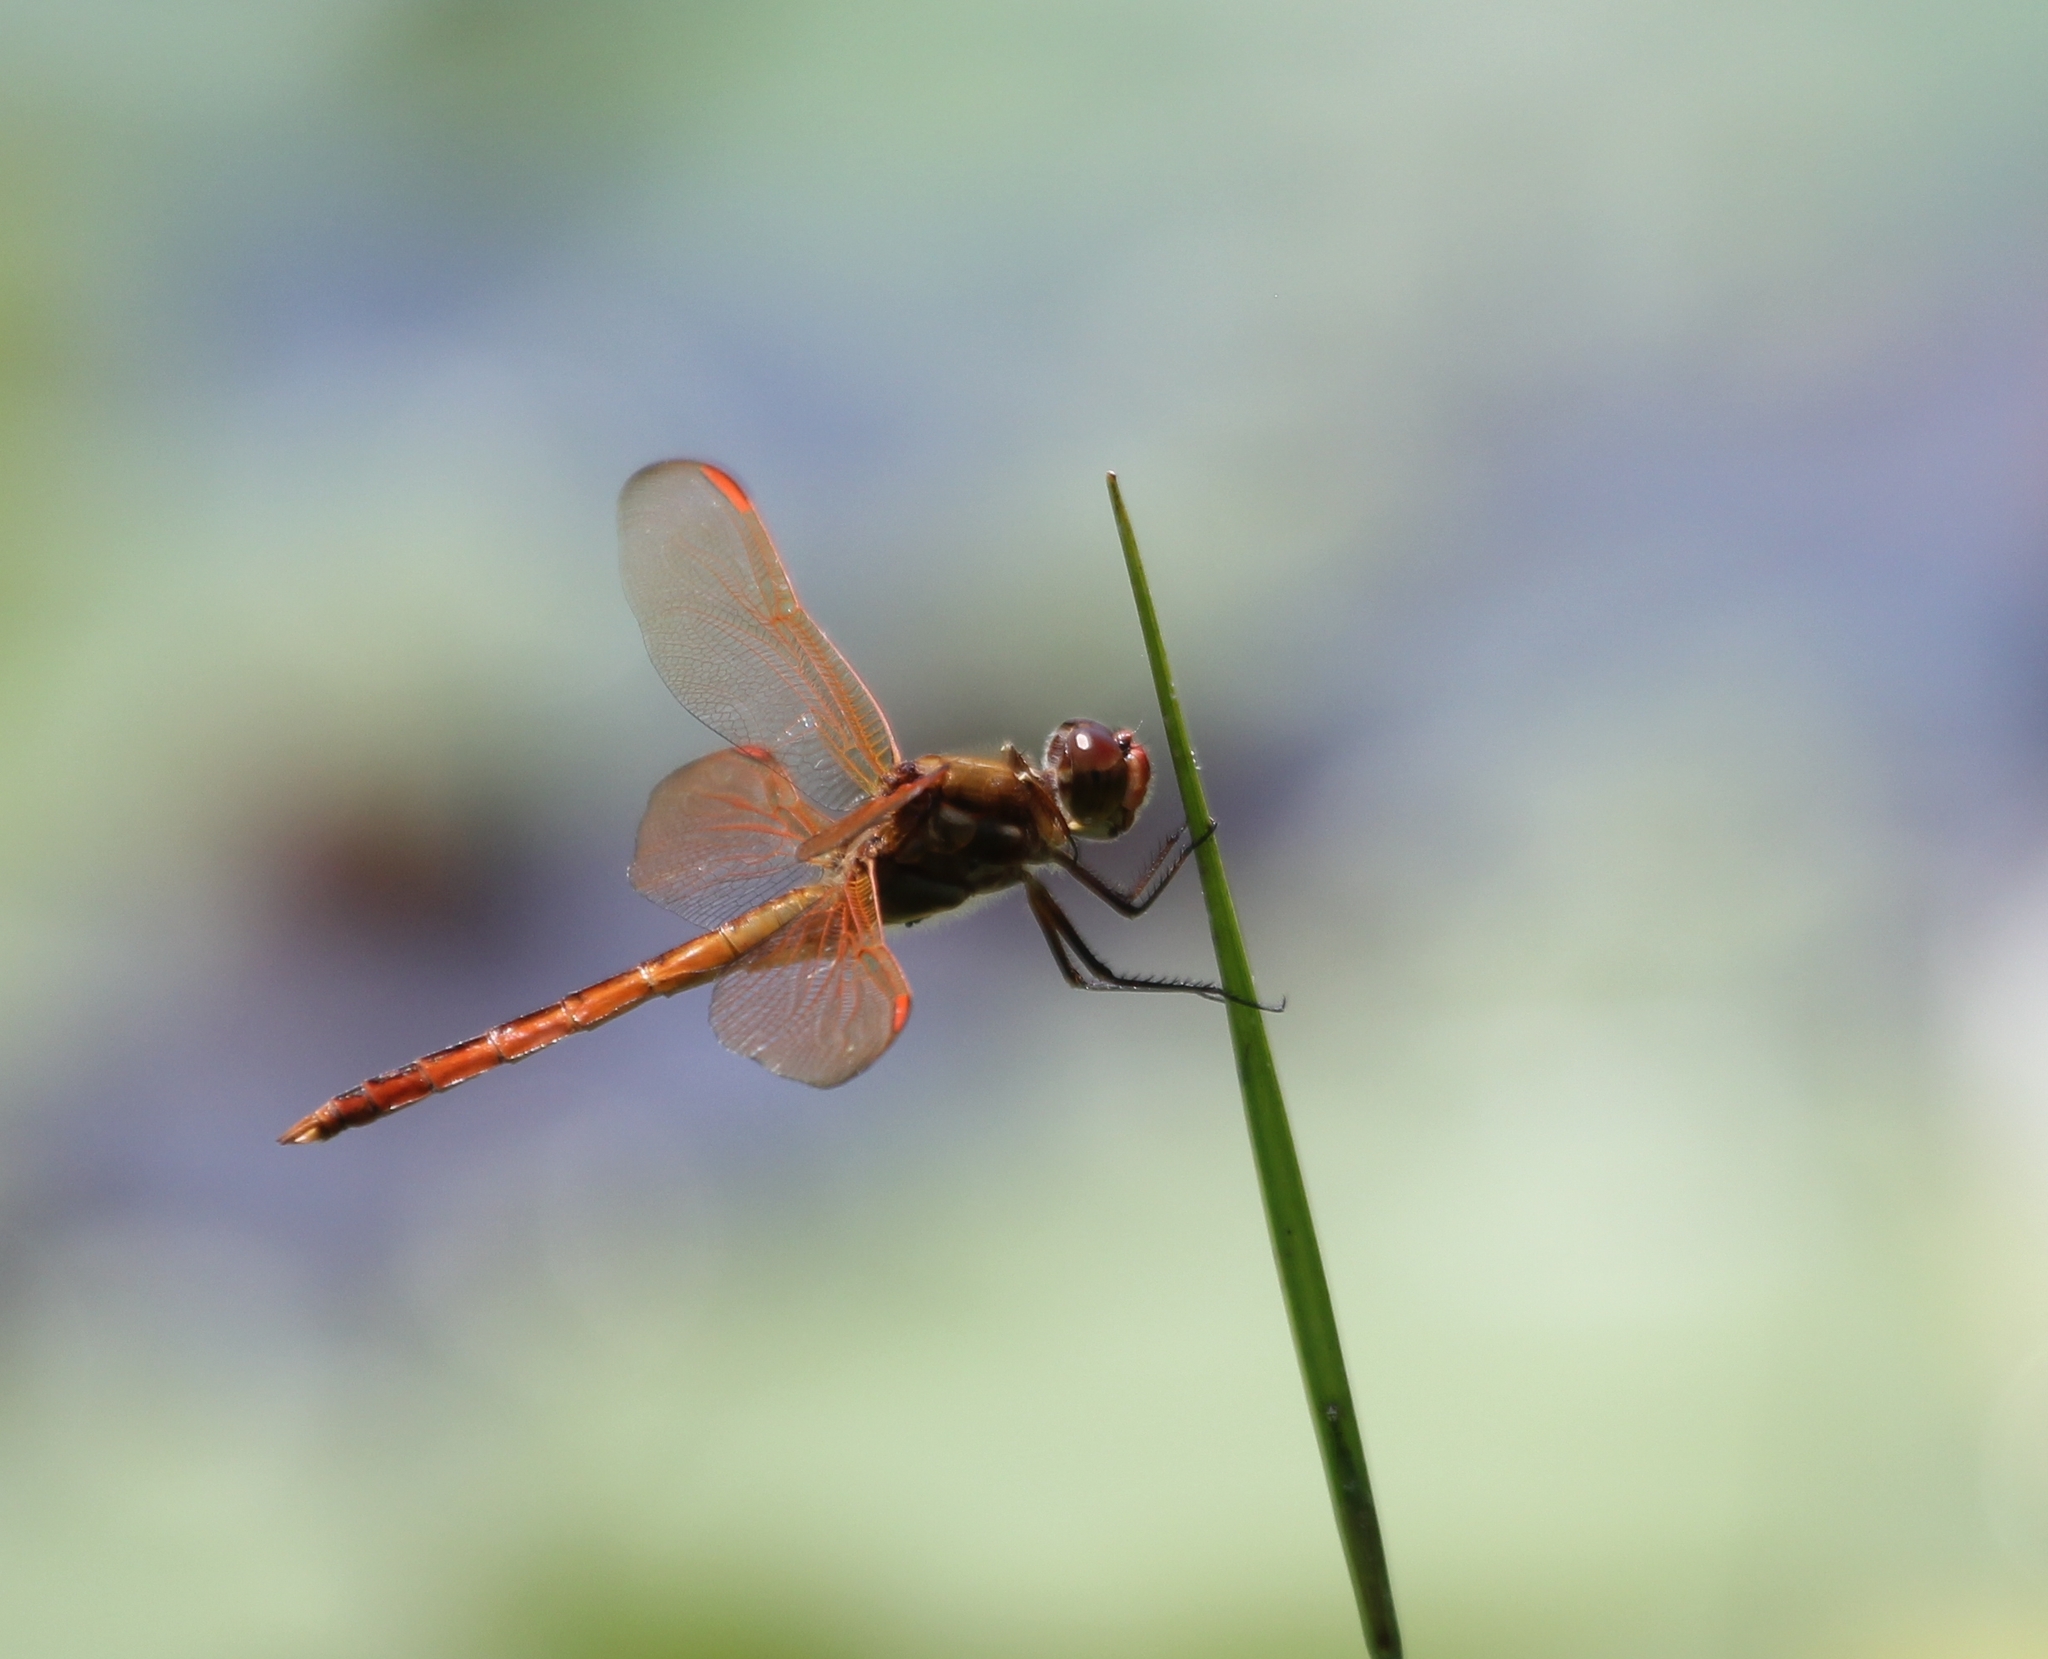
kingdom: Animalia
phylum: Arthropoda
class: Insecta
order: Odonata
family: Libellulidae
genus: Libellula
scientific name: Libellula auripennis
